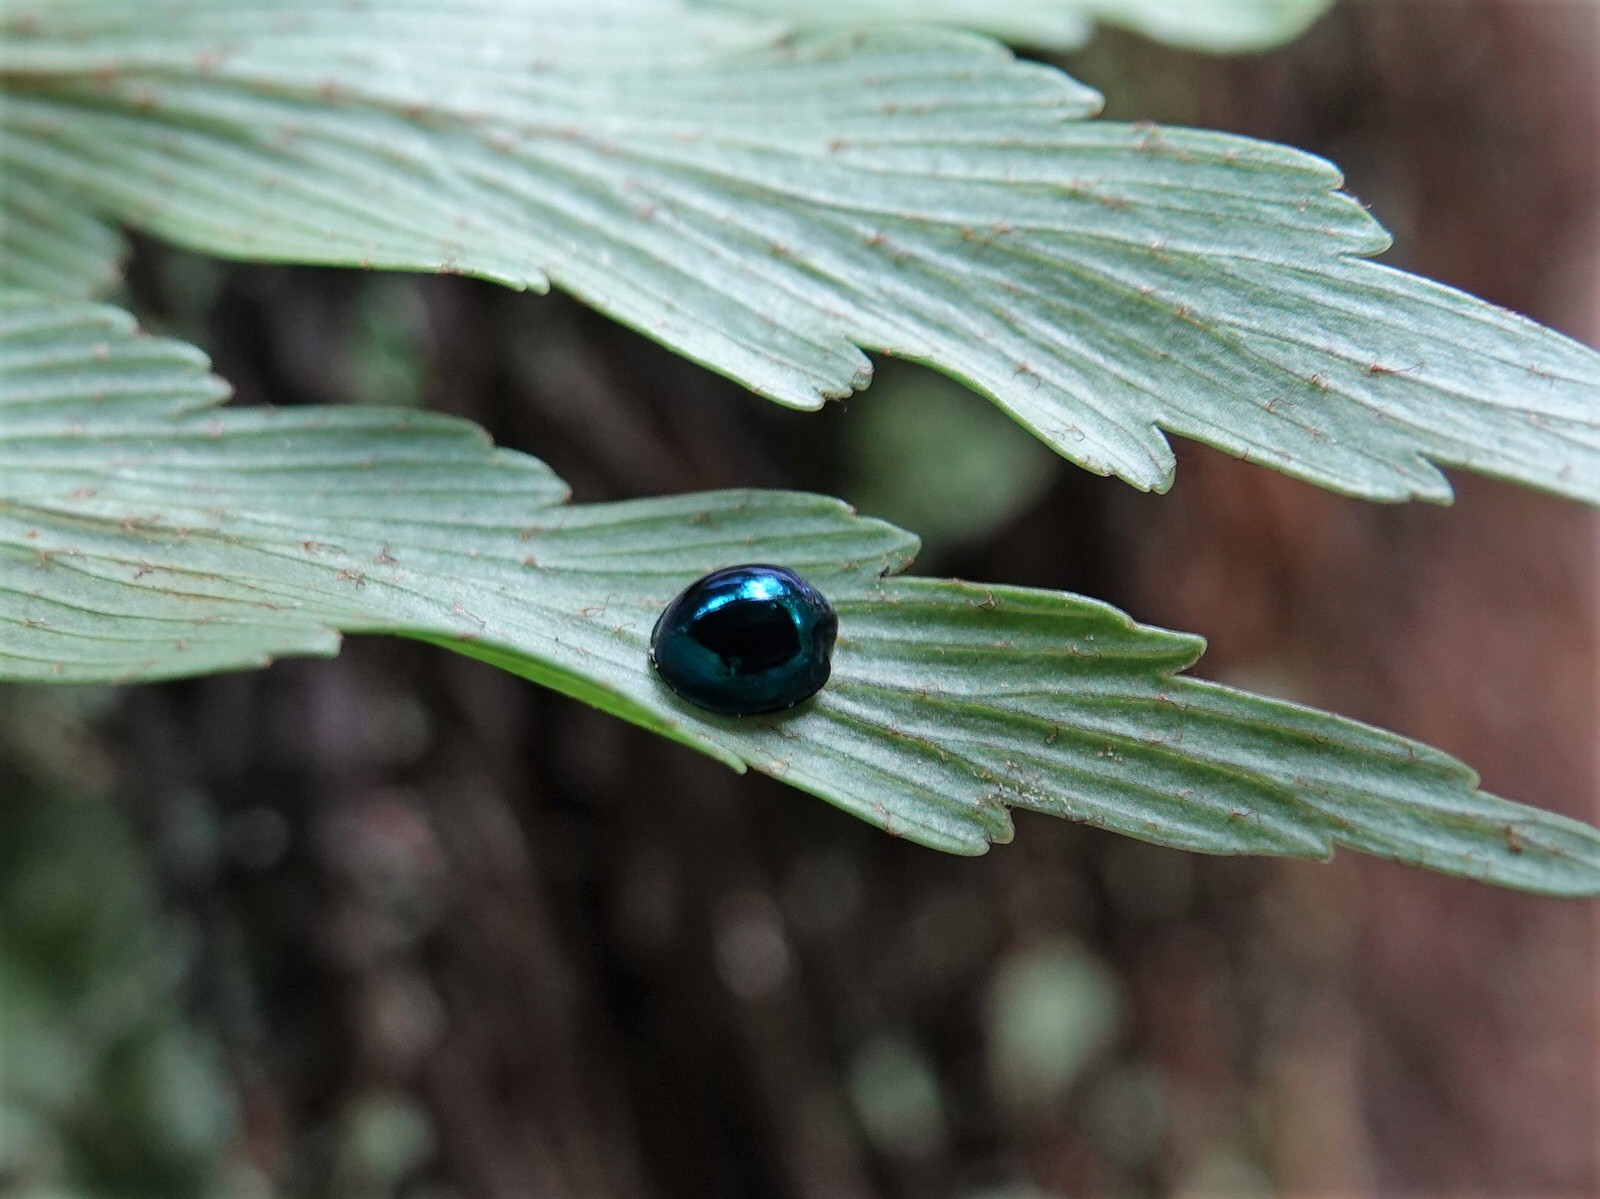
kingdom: Animalia
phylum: Arthropoda
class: Insecta
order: Coleoptera
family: Coccinellidae
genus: Halmus
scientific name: Halmus chalybeus
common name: Steel blue ladybird beetle
